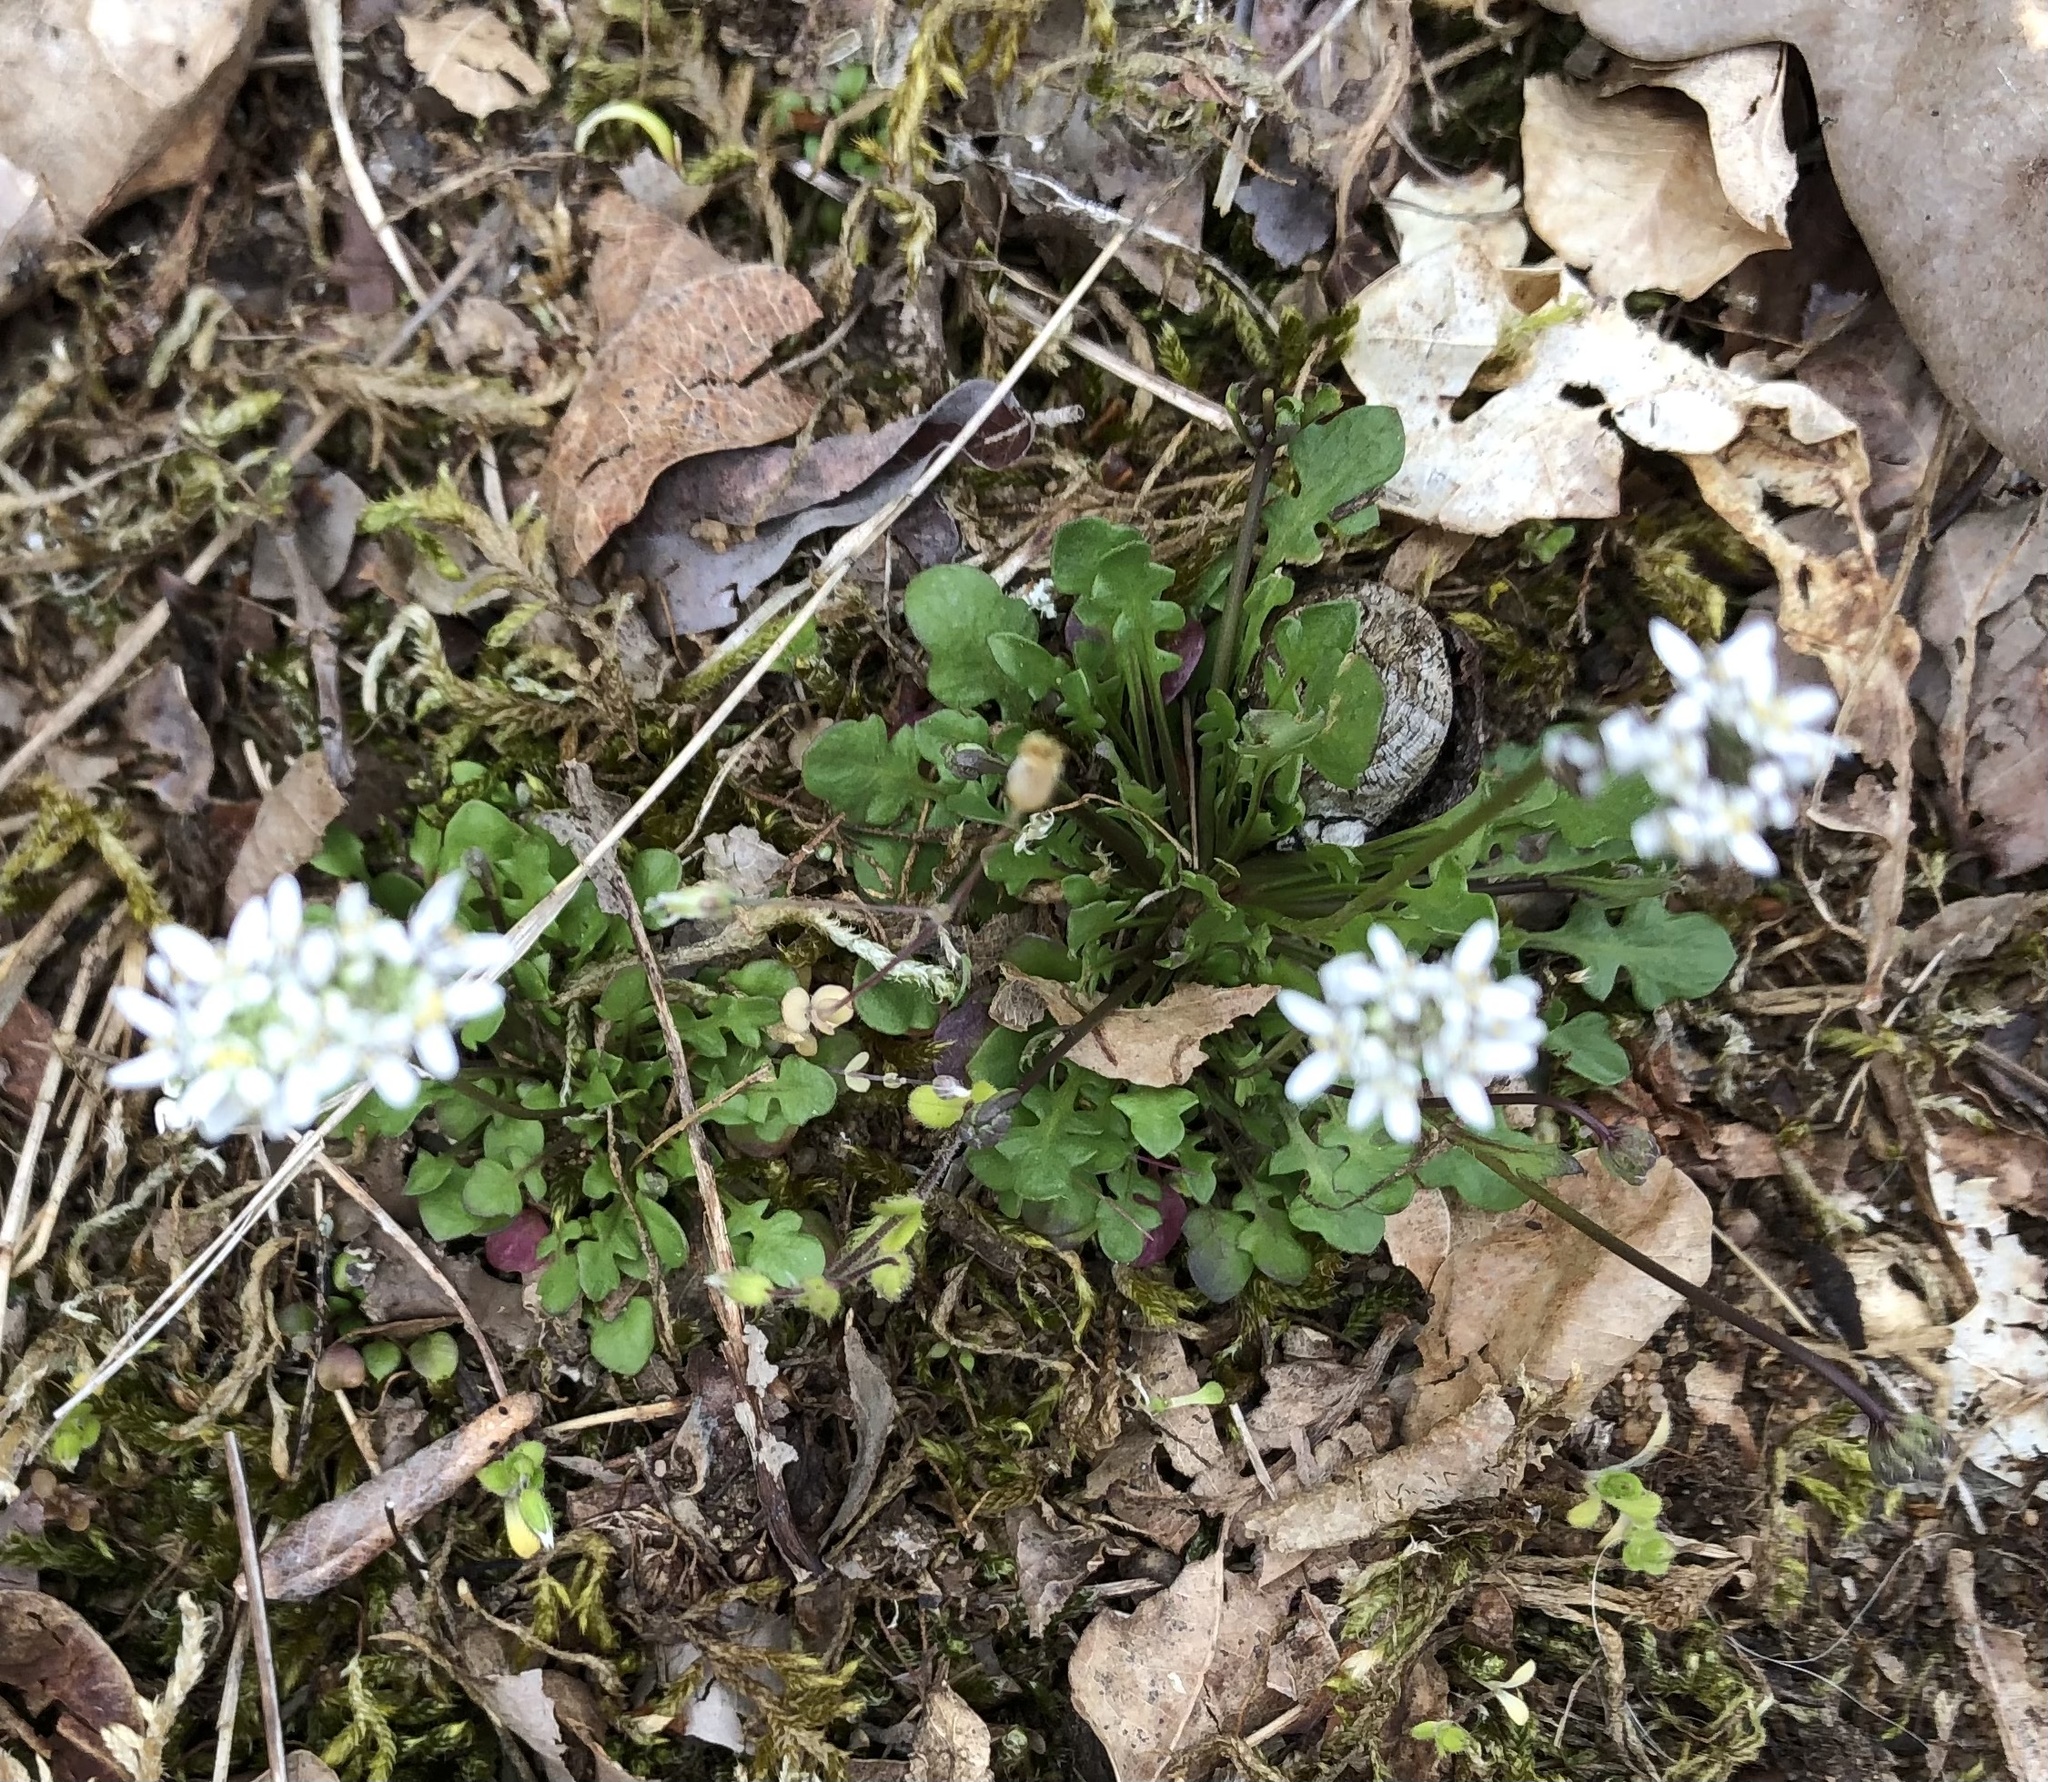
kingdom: Plantae
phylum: Tracheophyta
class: Magnoliopsida
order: Brassicales
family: Brassicaceae
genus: Teesdalia
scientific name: Teesdalia nudicaulis
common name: Shepherd's cress
